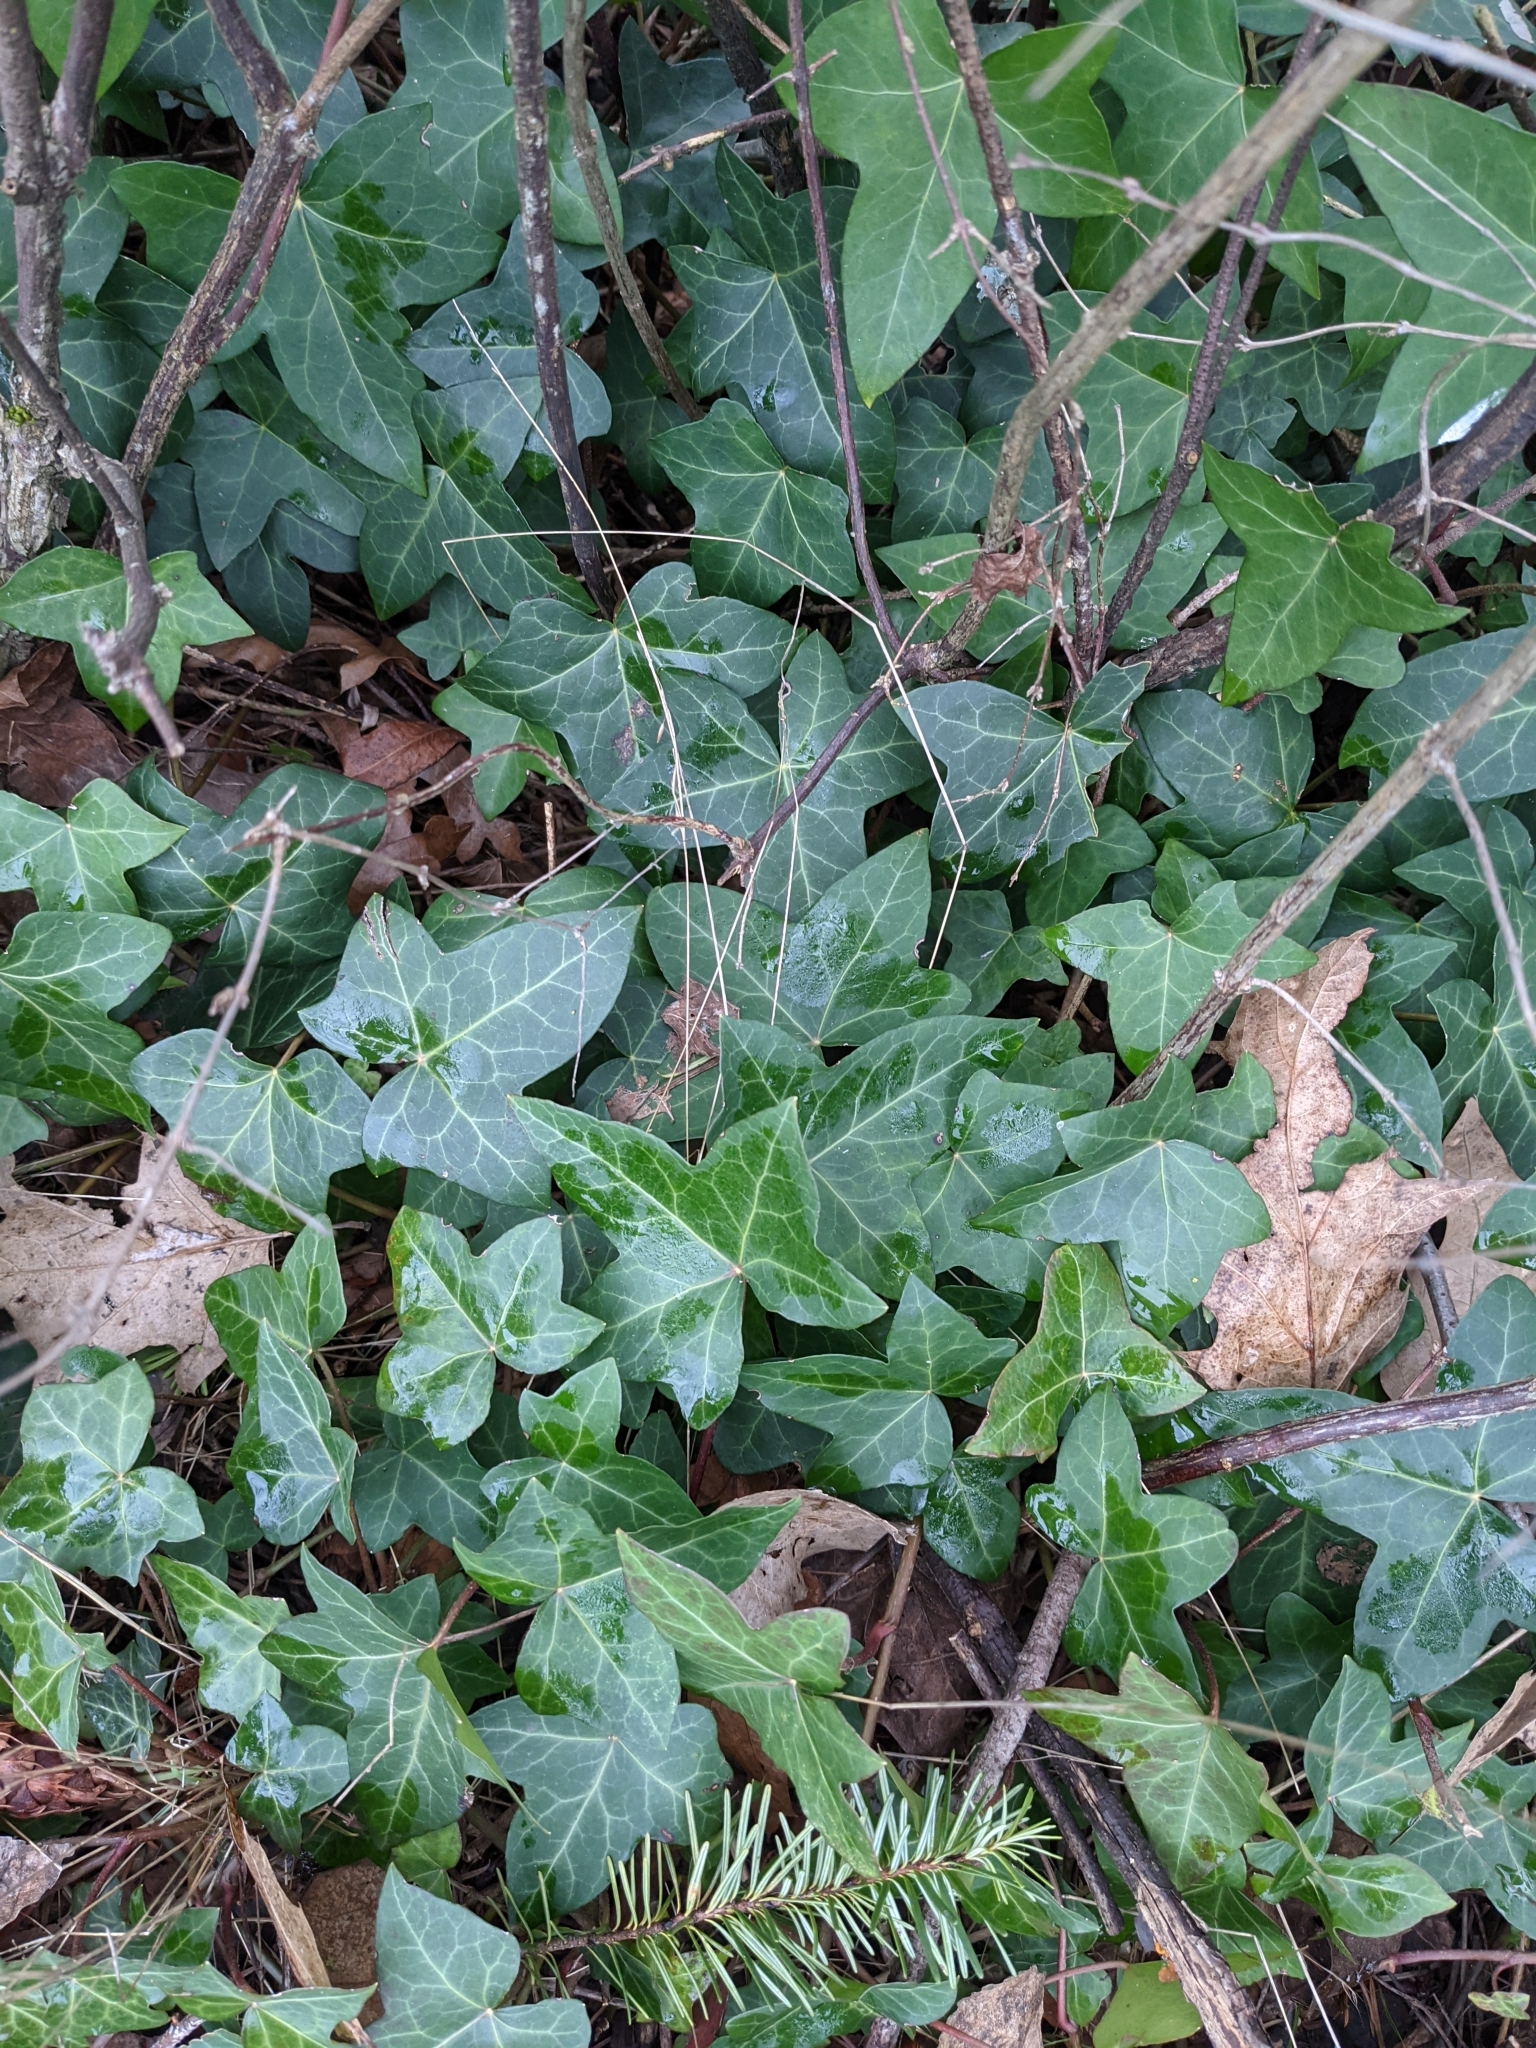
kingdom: Plantae
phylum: Tracheophyta
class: Magnoliopsida
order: Apiales
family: Araliaceae
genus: Hedera
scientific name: Hedera helix
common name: Ivy
